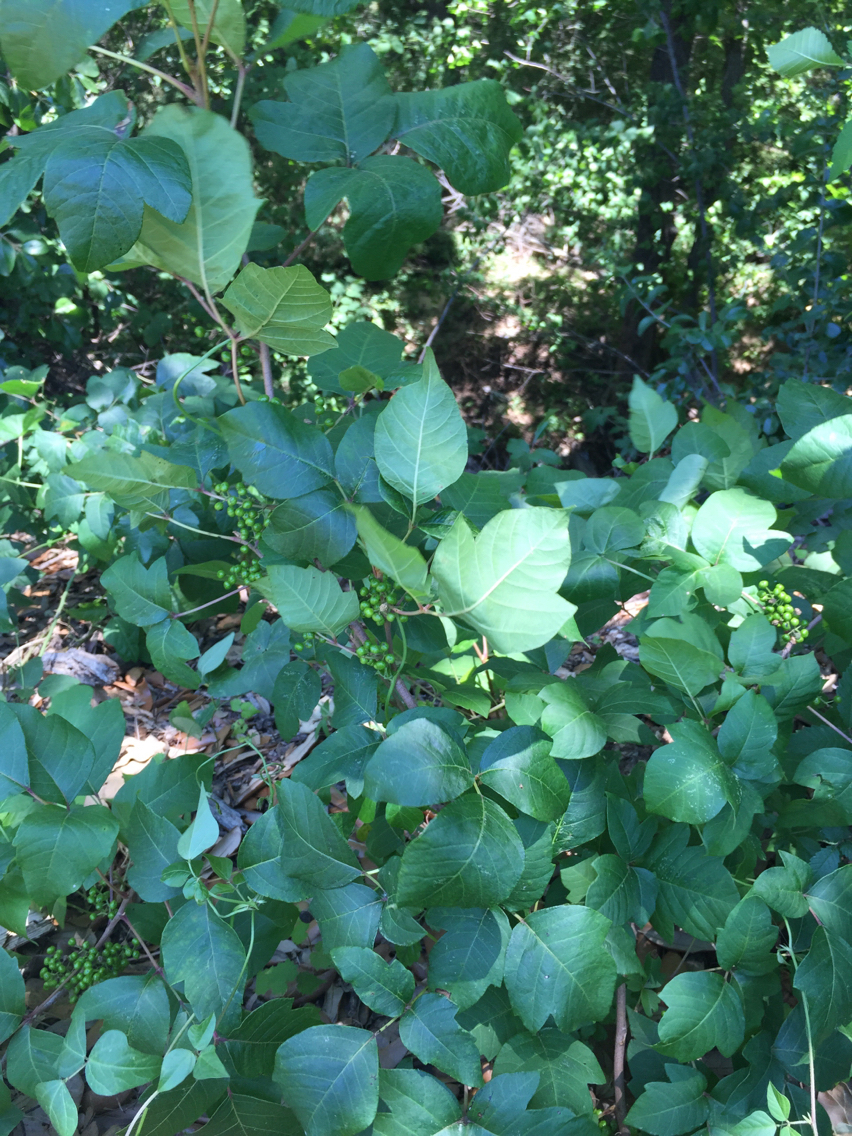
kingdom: Plantae
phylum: Tracheophyta
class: Magnoliopsida
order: Sapindales
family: Anacardiaceae
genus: Toxicodendron
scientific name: Toxicodendron radicans
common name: Poison ivy
